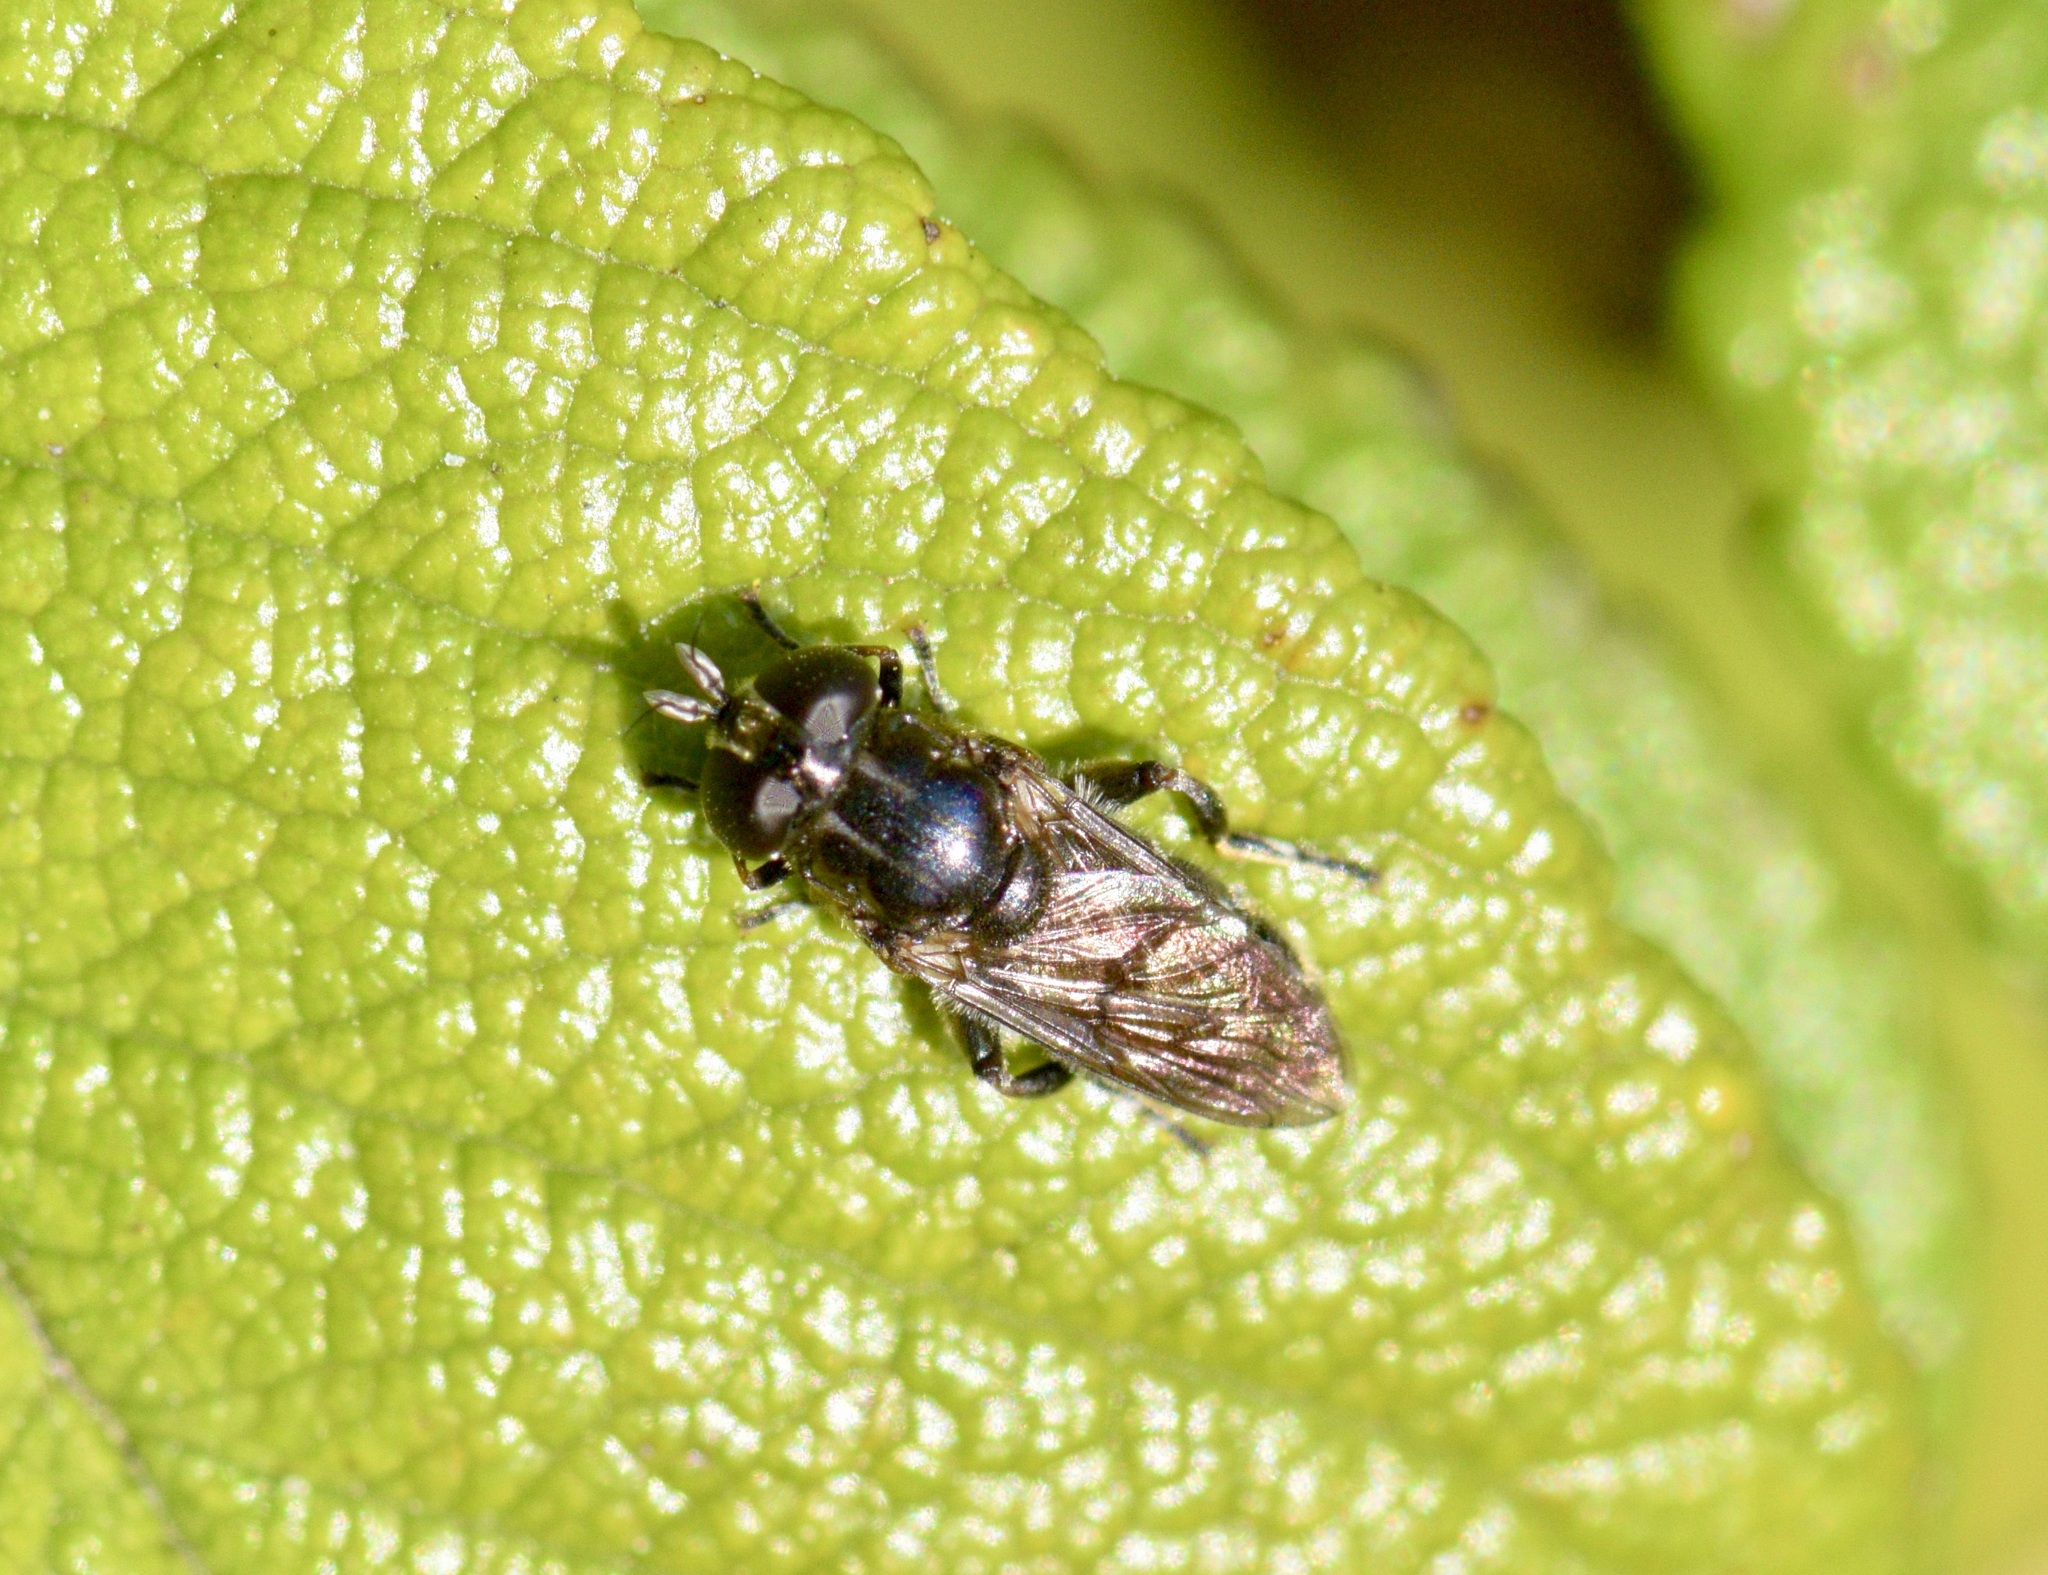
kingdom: Animalia
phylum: Arthropoda
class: Insecta
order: Diptera
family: Syrphidae
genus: Eumerus
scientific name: Eumerus
